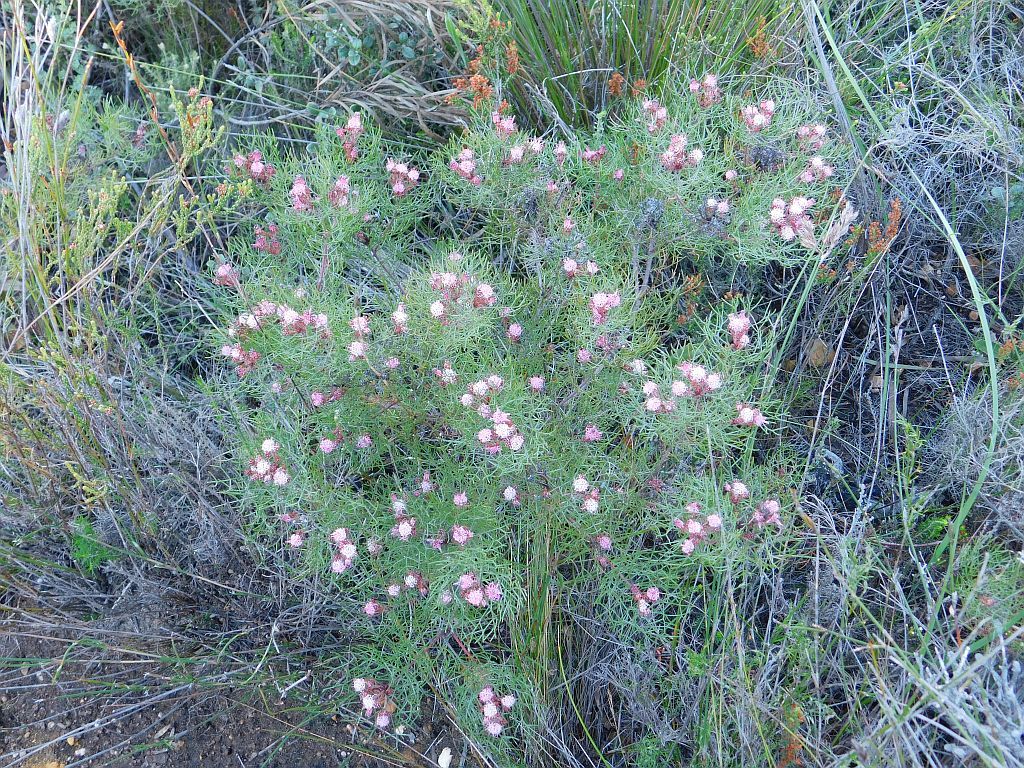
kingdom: Plantae
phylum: Tracheophyta
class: Magnoliopsida
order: Proteales
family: Proteaceae
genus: Serruria
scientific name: Serruria fasciflora
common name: Common pin spiderhead
